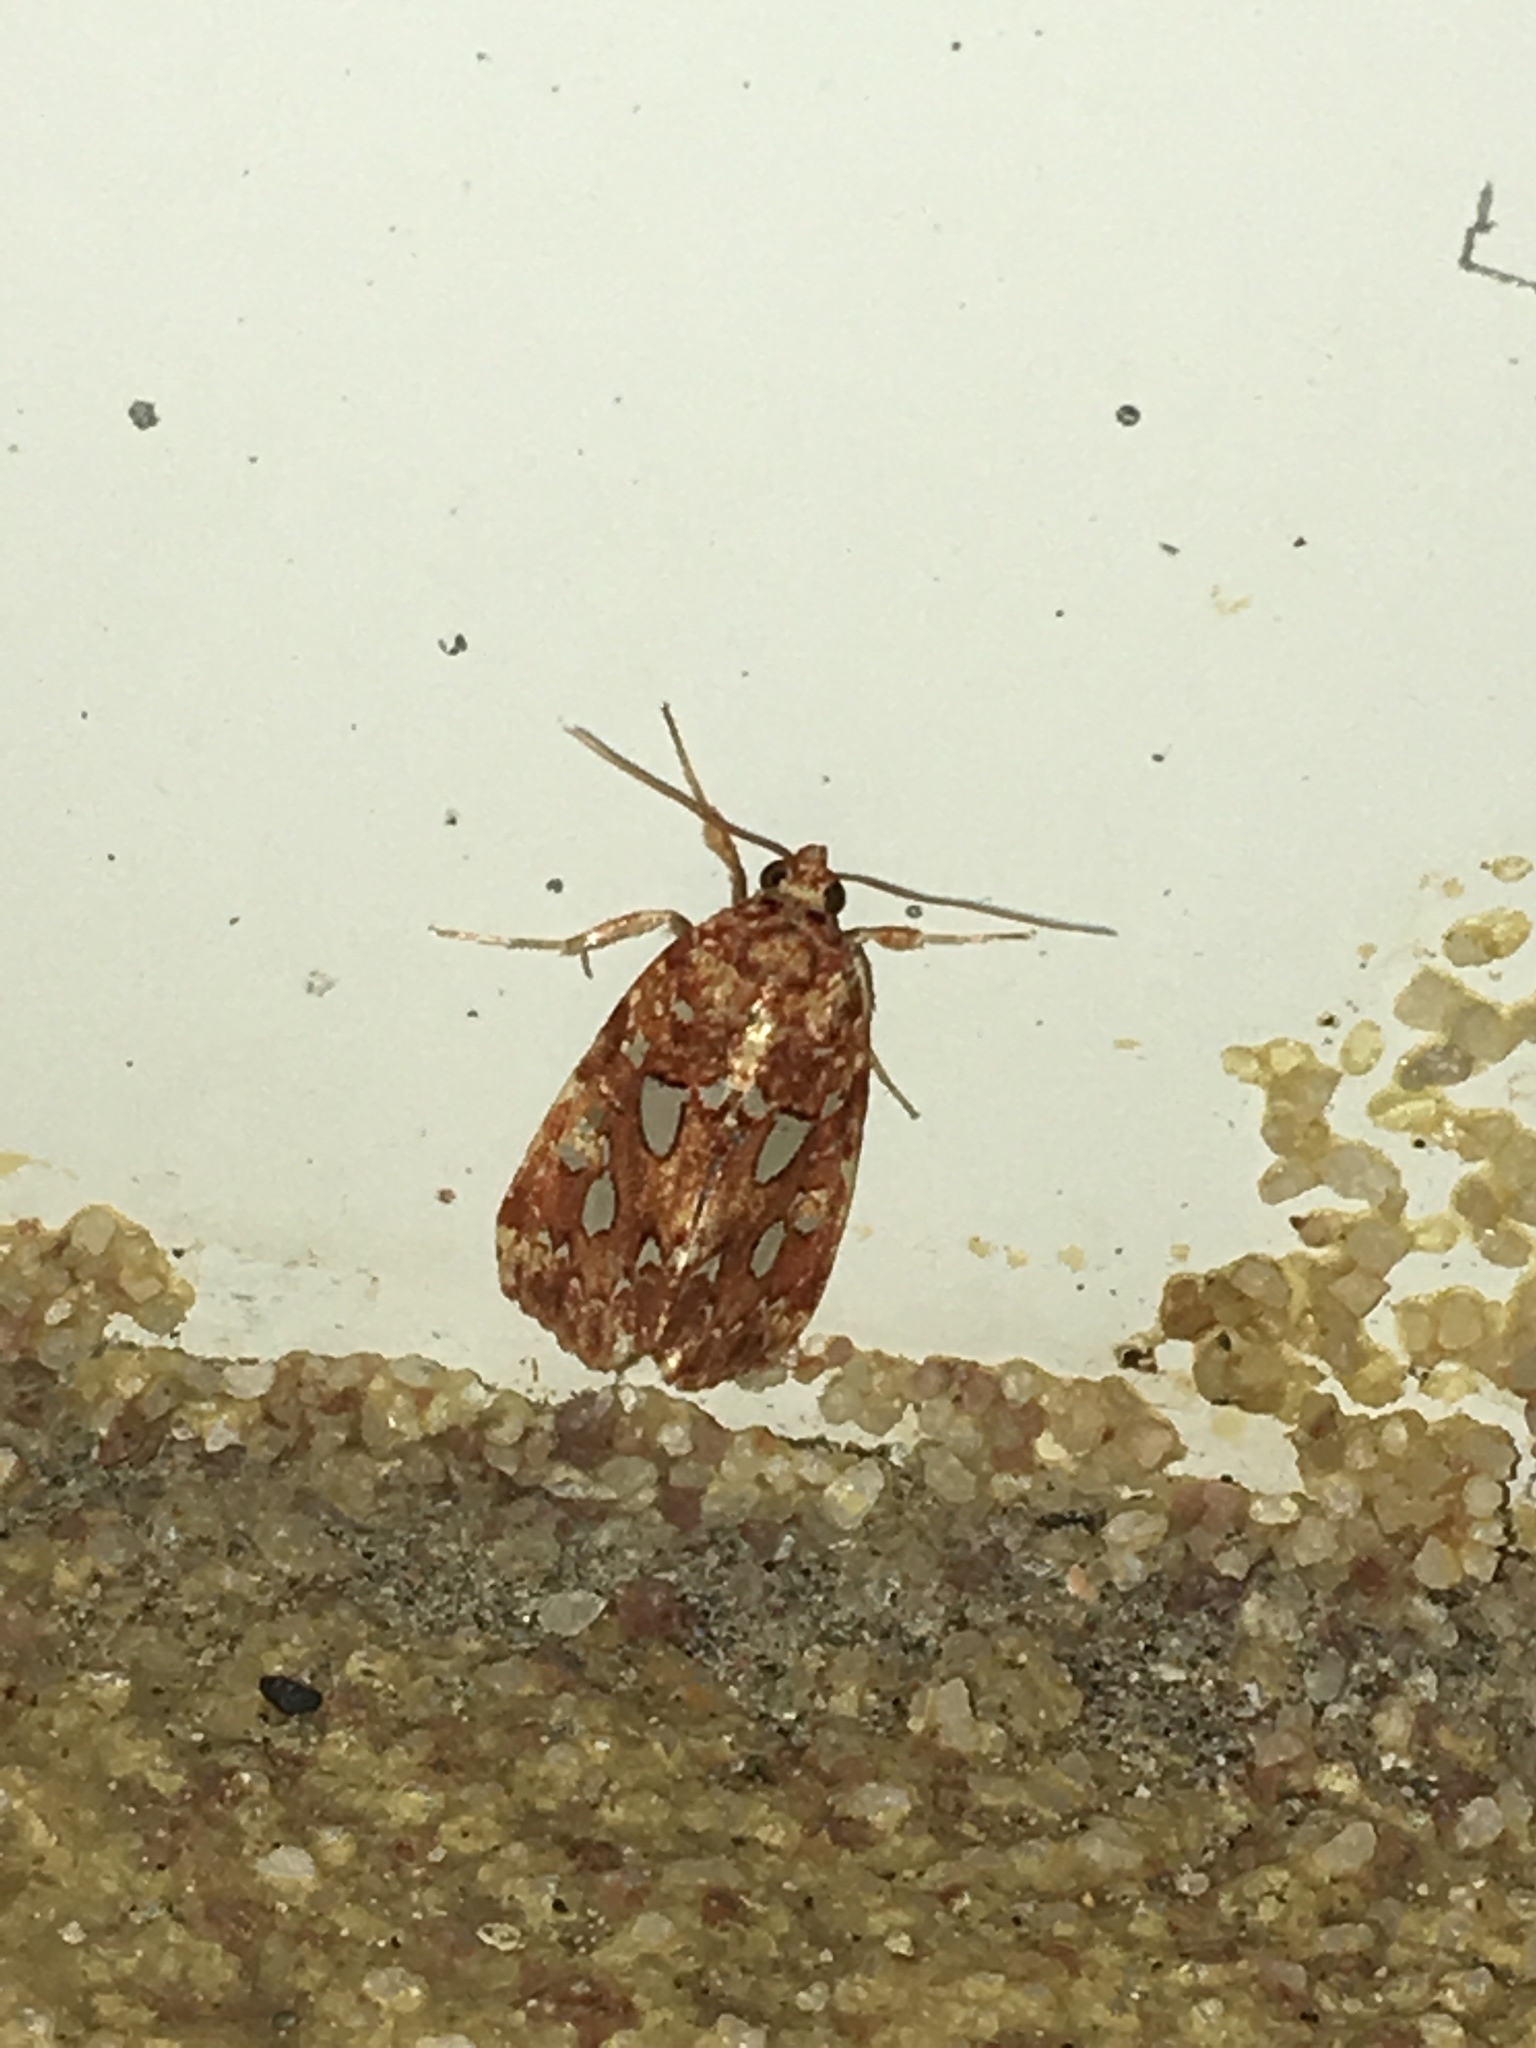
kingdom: Animalia
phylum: Arthropoda
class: Insecta
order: Lepidoptera
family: Noctuidae
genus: Callopistria
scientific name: Callopistria cordata
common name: Silver-spotted fern moth
